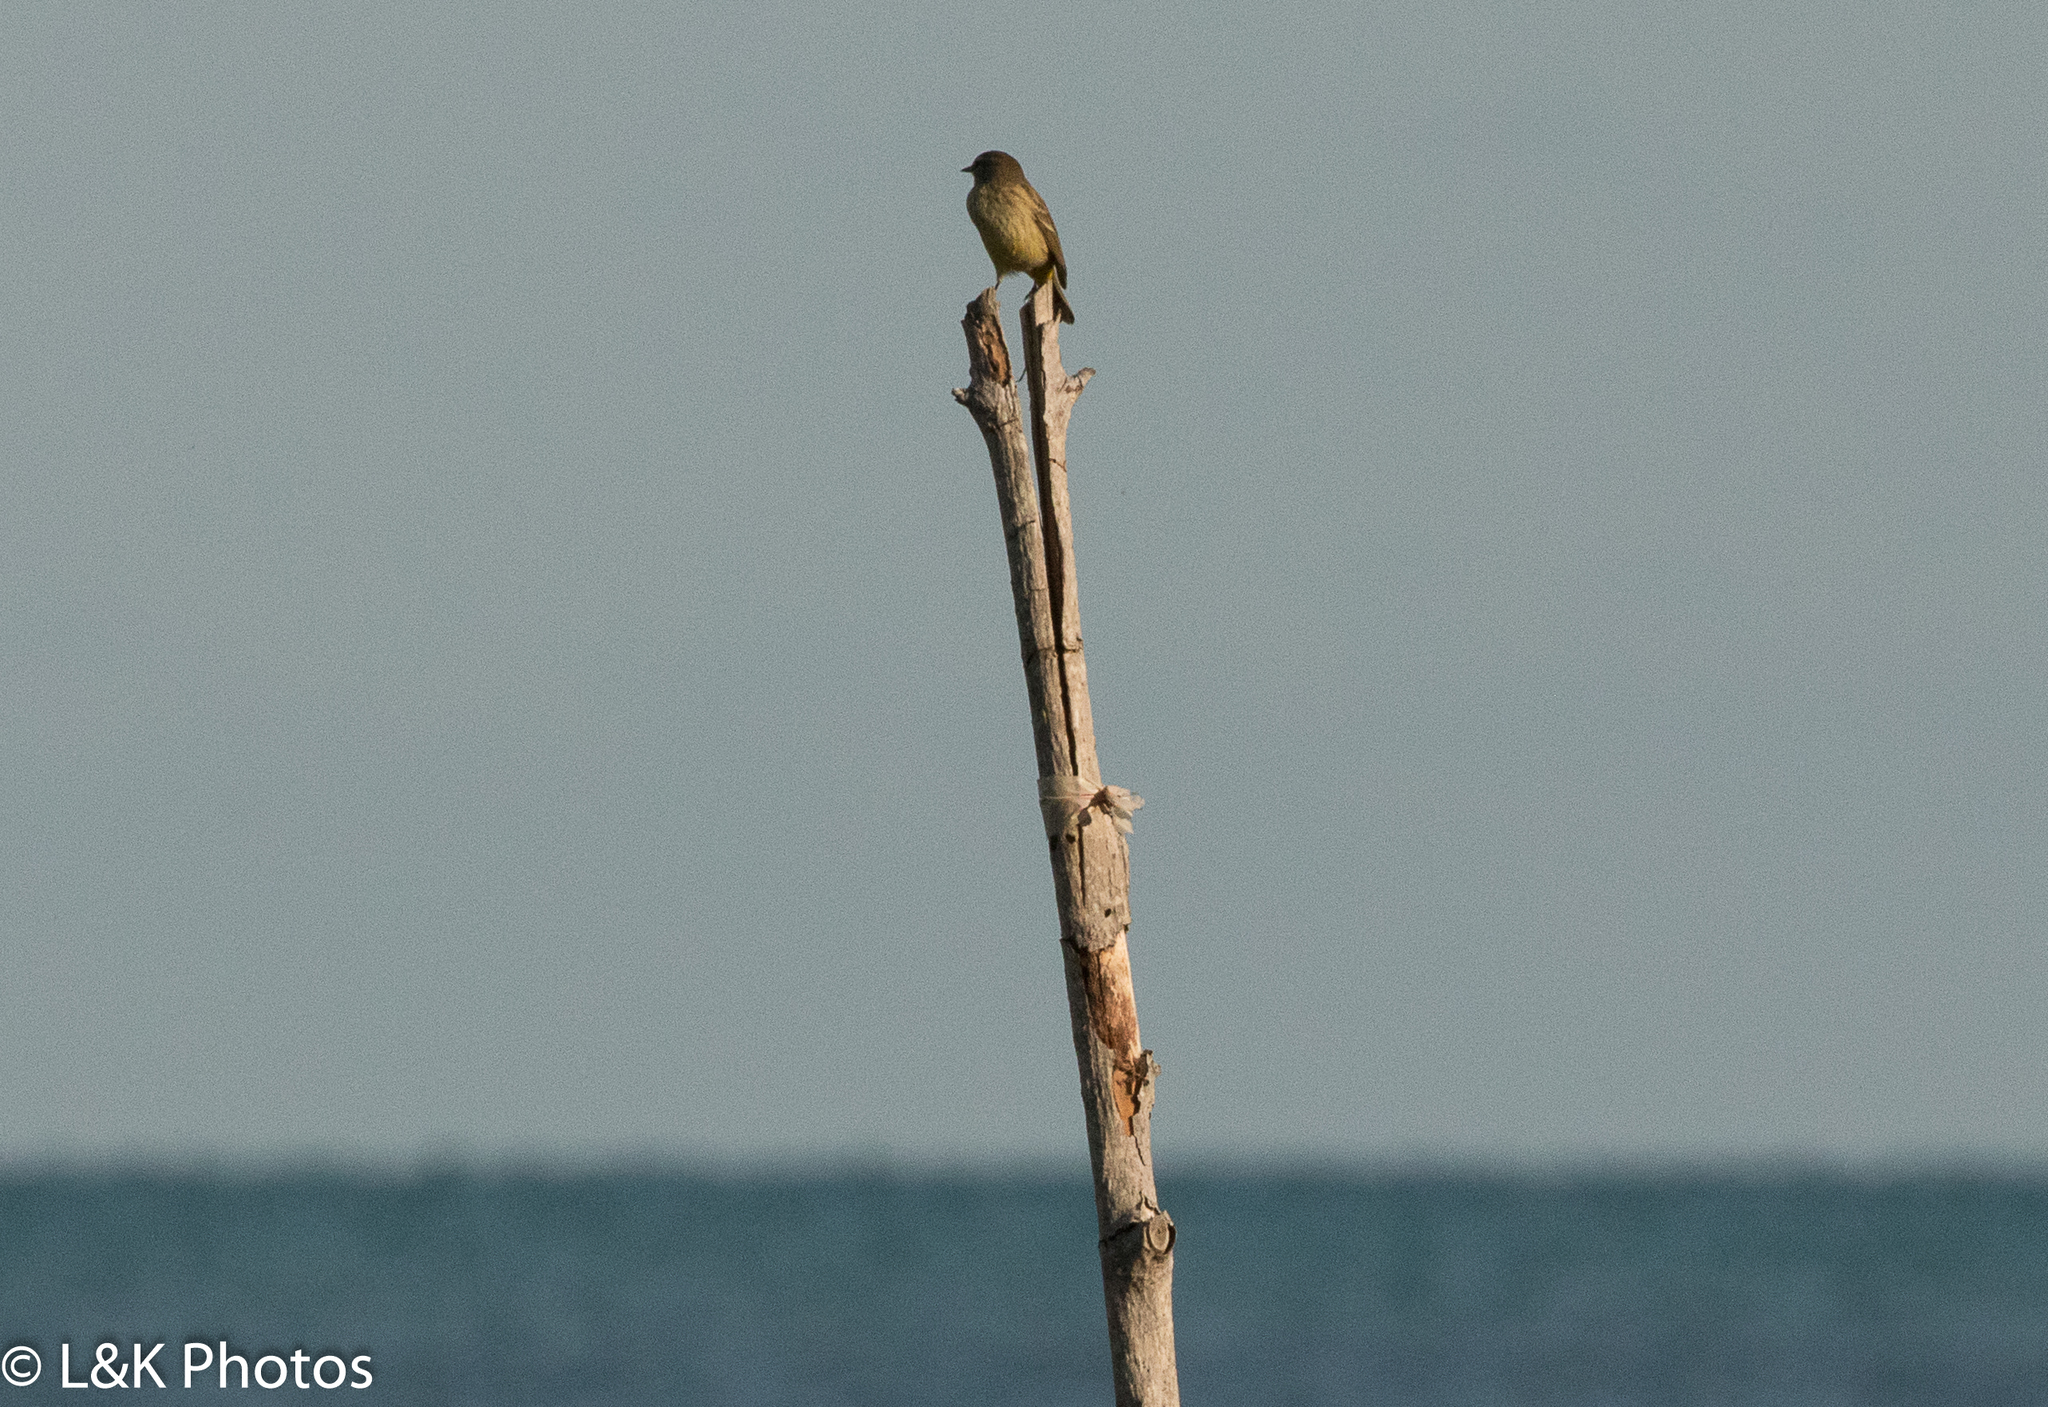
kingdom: Animalia
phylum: Chordata
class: Aves
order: Passeriformes
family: Parulidae
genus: Setophaga
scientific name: Setophaga palmarum
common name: Palm warbler
